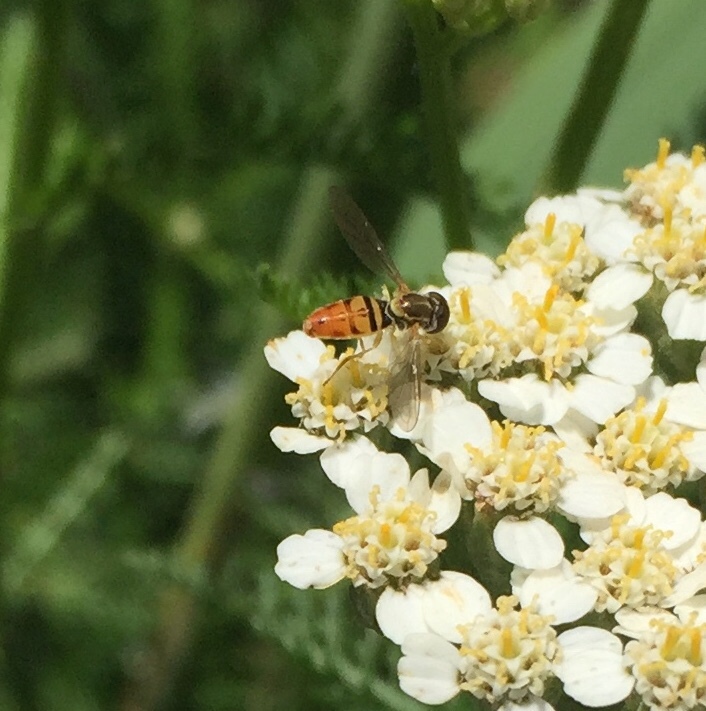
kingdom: Animalia
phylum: Arthropoda
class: Insecta
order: Diptera
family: Syrphidae
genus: Toxomerus
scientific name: Toxomerus marginatus
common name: Syrphid fly
